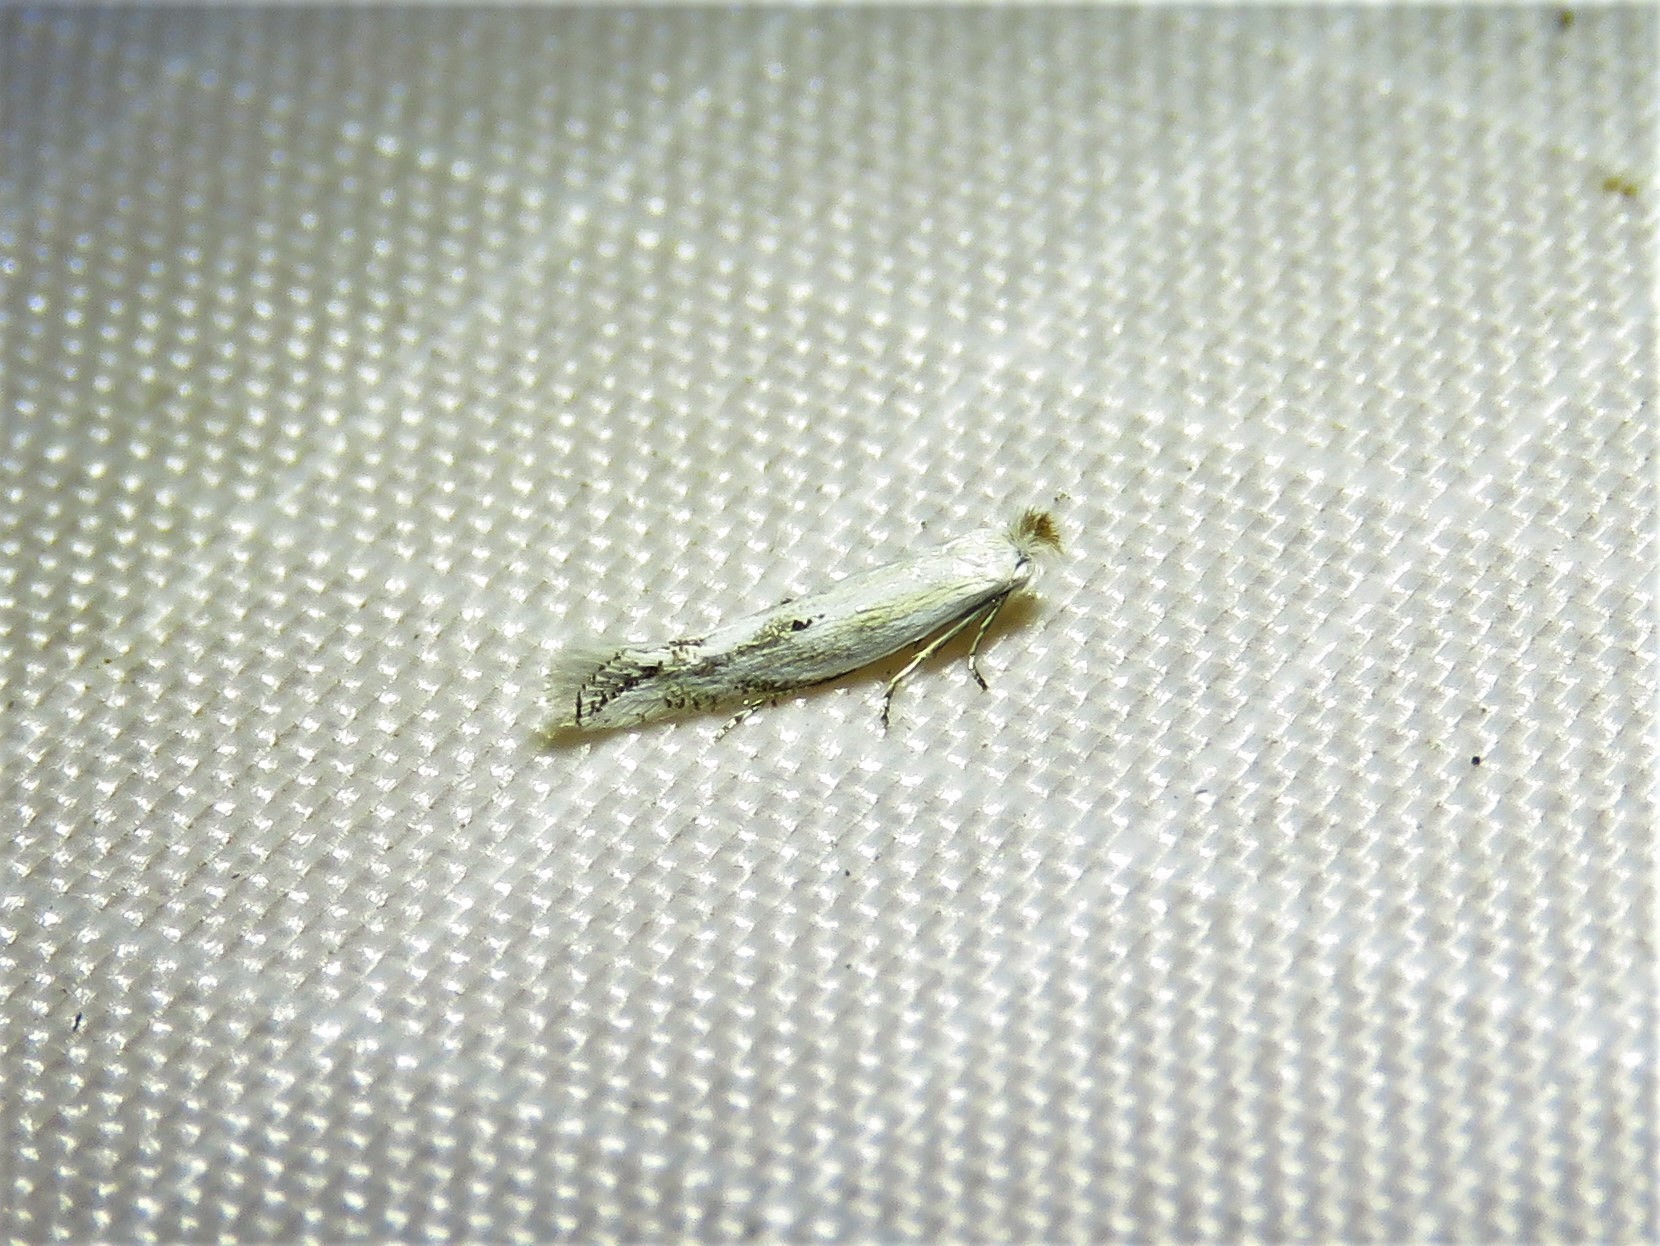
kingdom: Animalia
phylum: Arthropoda
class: Insecta
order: Lepidoptera
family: Bucculatricidae
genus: Bucculatrix
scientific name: Bucculatrix longula
